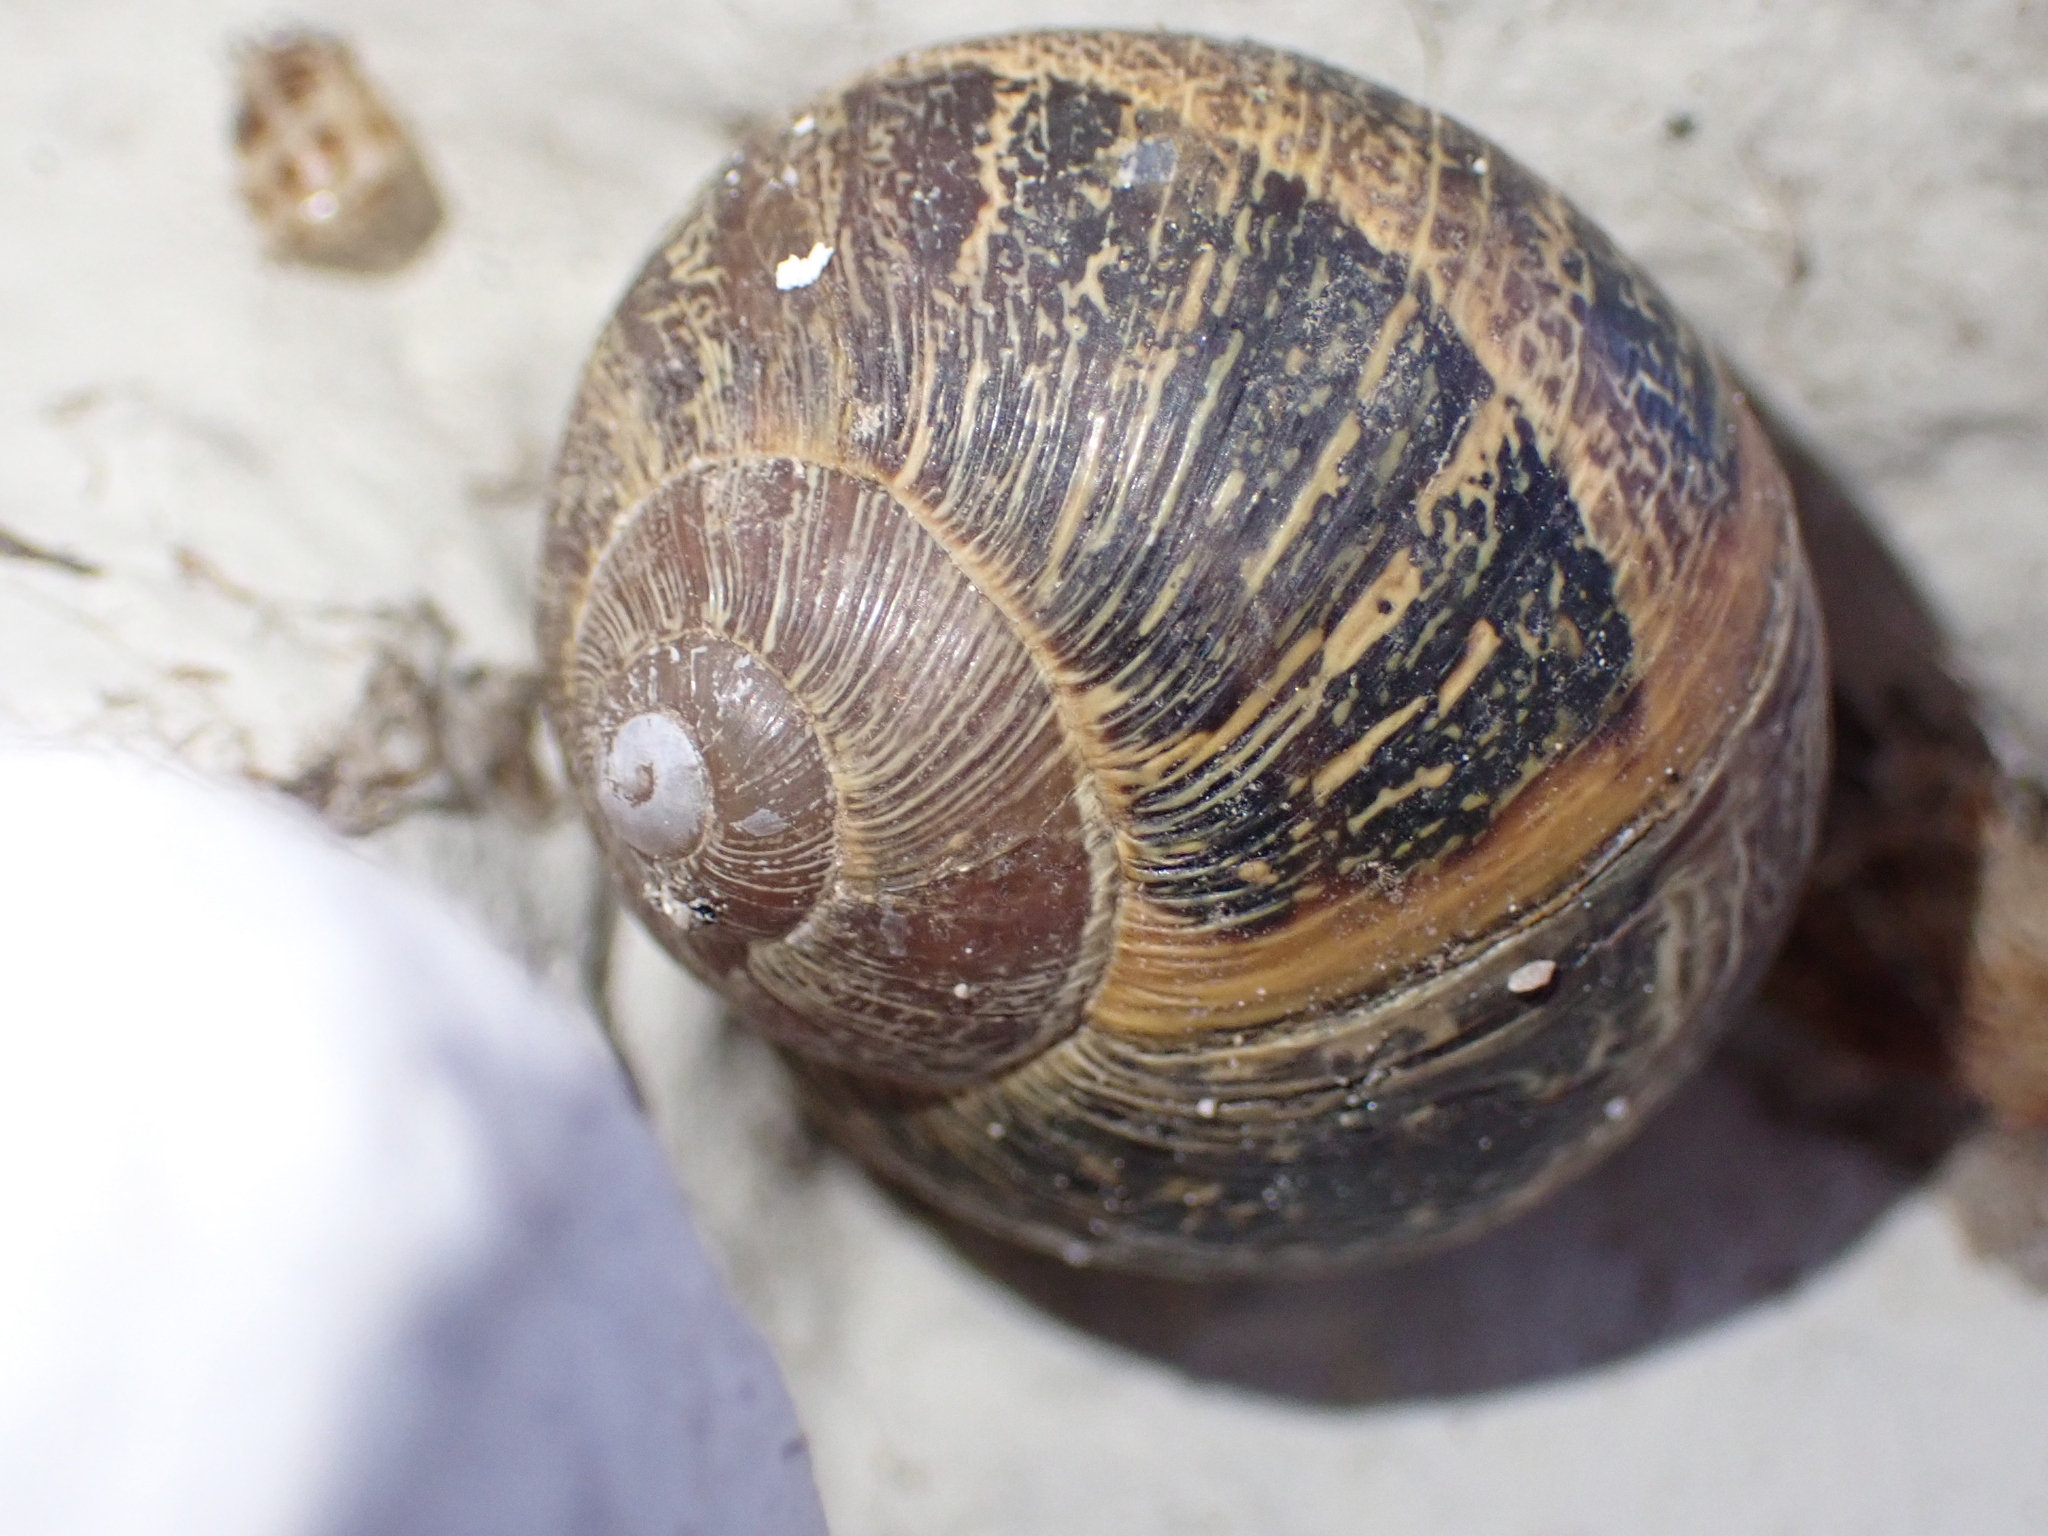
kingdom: Animalia
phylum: Mollusca
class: Gastropoda
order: Stylommatophora
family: Helicidae
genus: Cornu
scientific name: Cornu aspersum
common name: Brown garden snail
